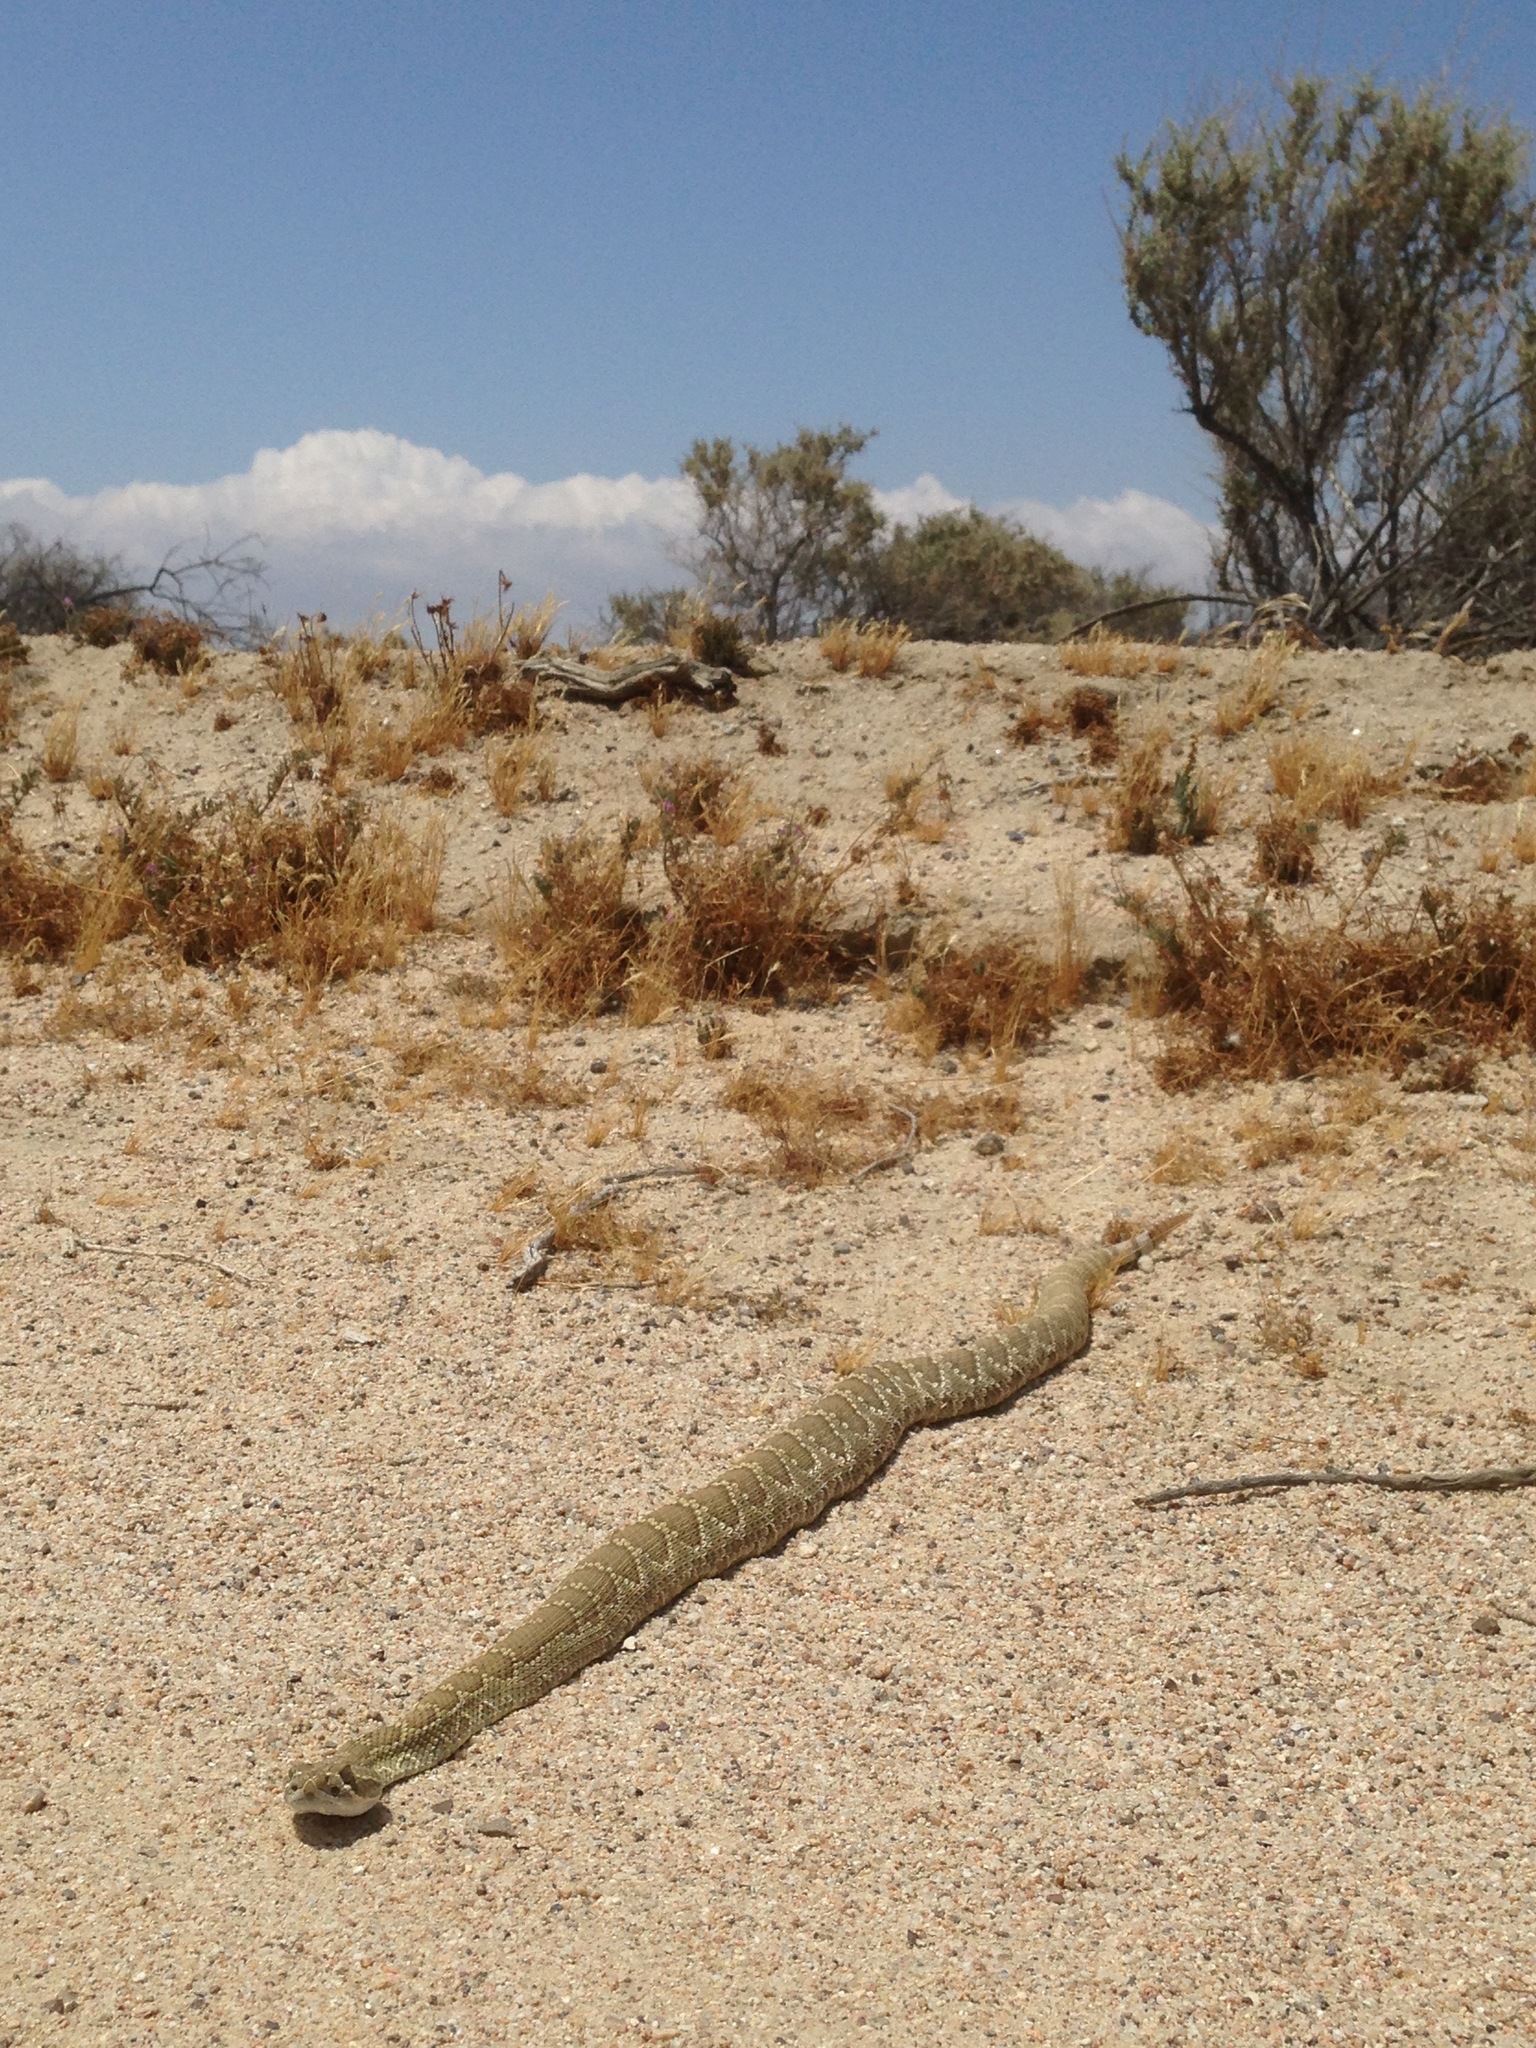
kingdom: Animalia
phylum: Chordata
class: Squamata
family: Viperidae
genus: Crotalus
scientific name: Crotalus scutulatus
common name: Scutulatus
